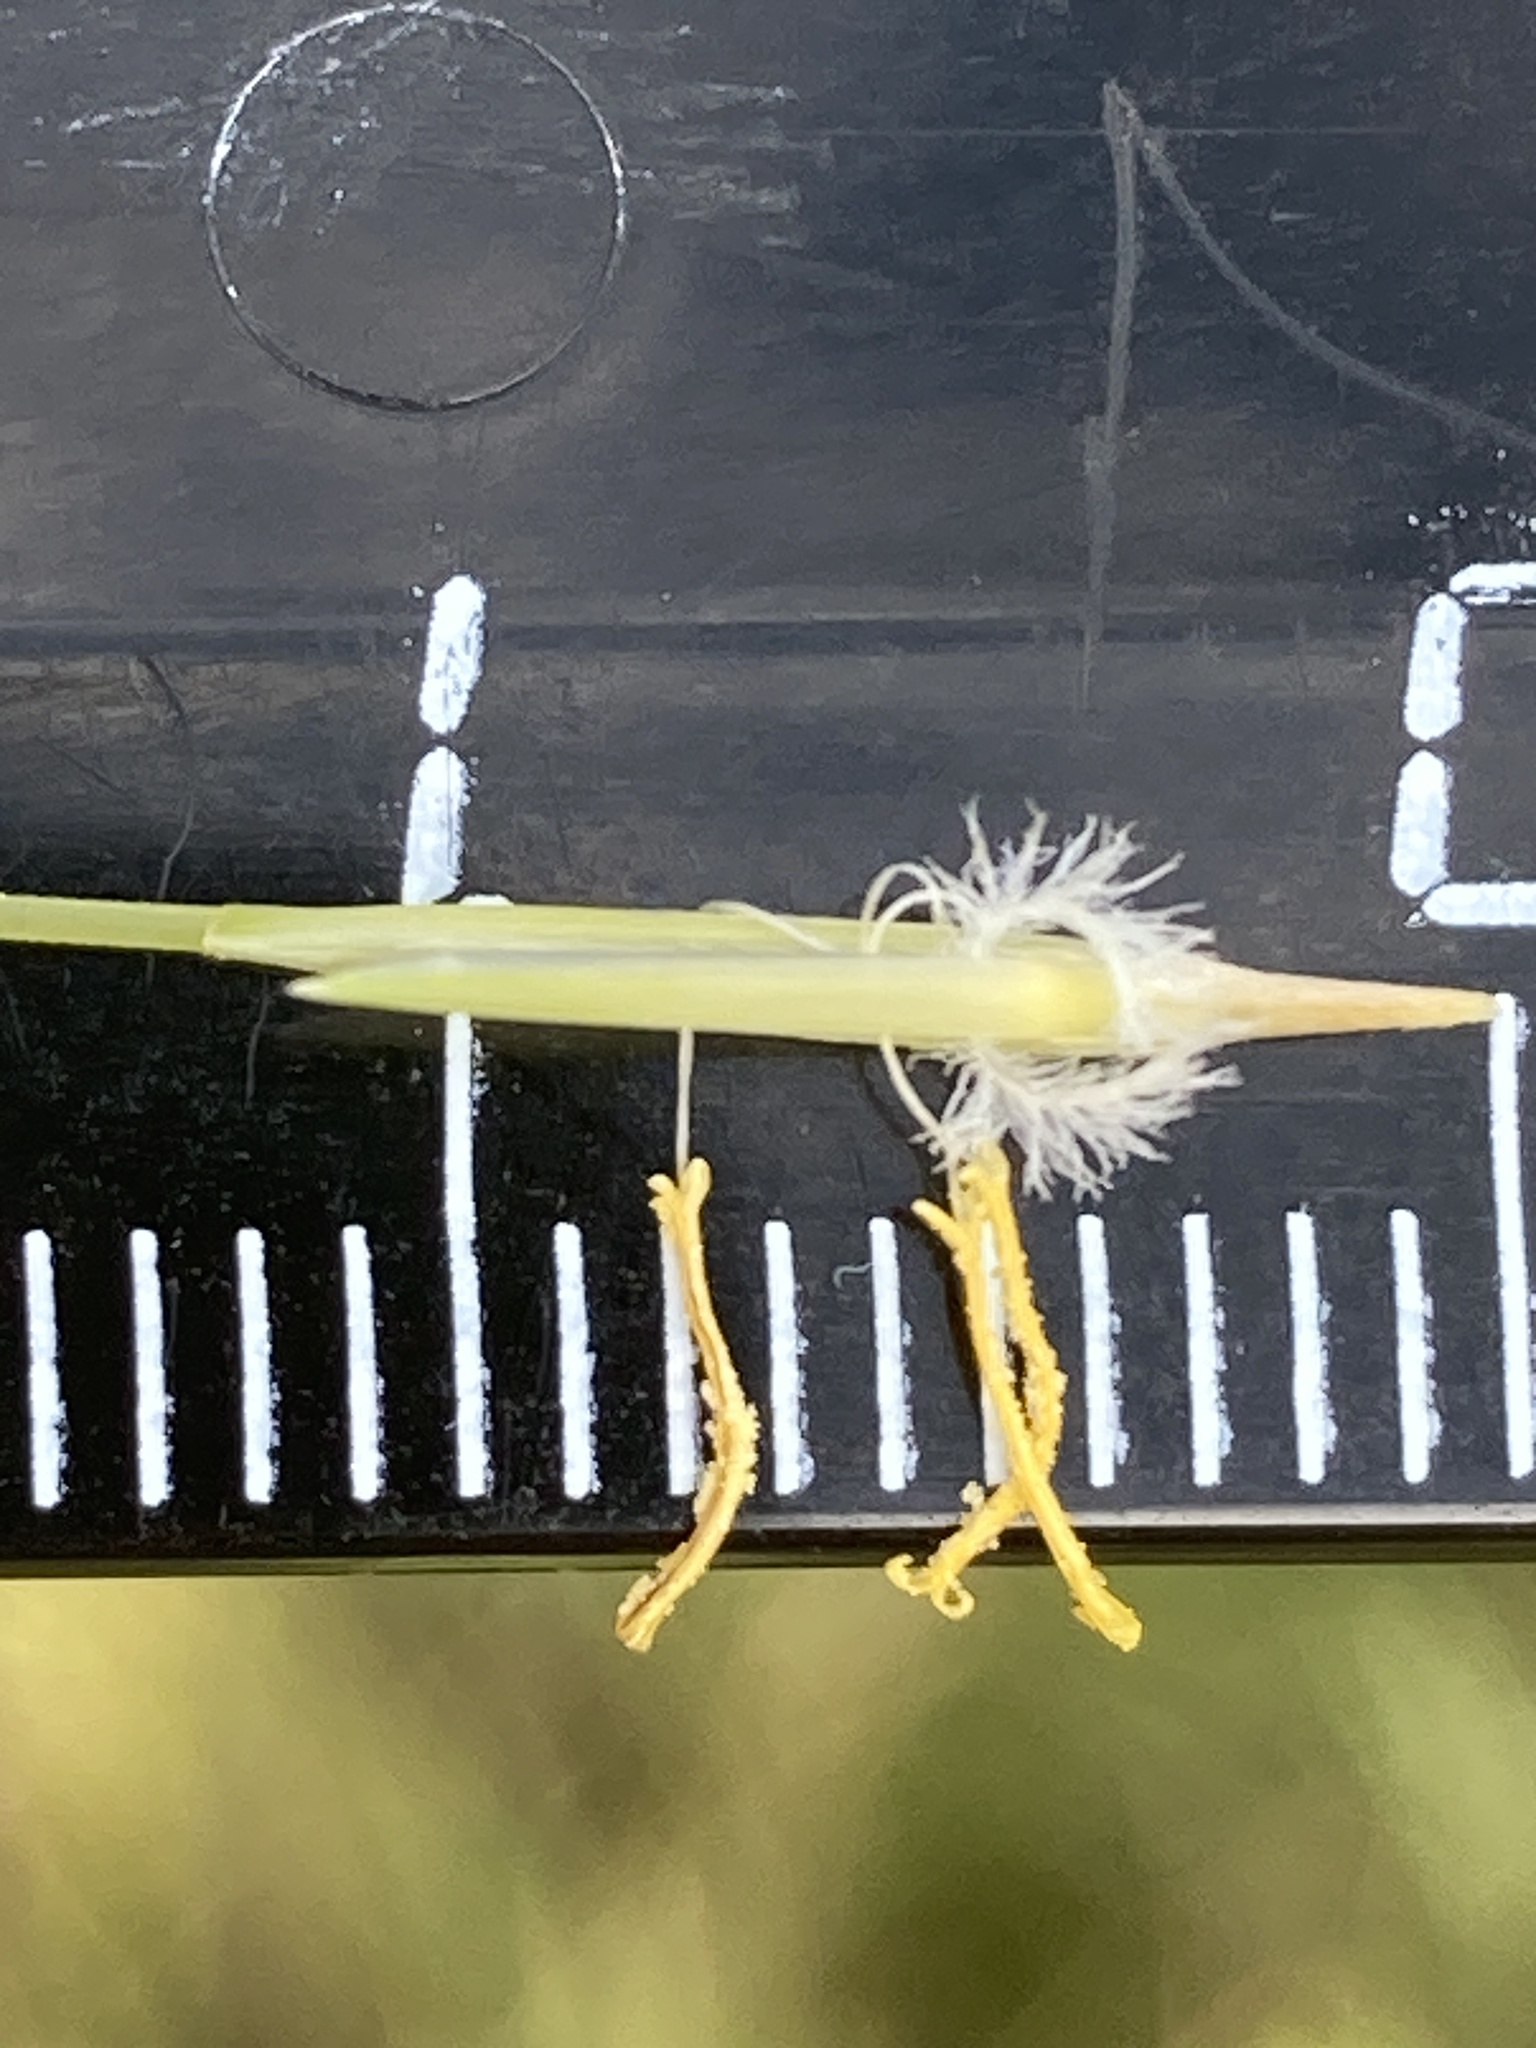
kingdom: Plantae
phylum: Tracheophyta
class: Liliopsida
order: Poales
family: Poaceae
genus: Stipa
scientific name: Stipa capillata
